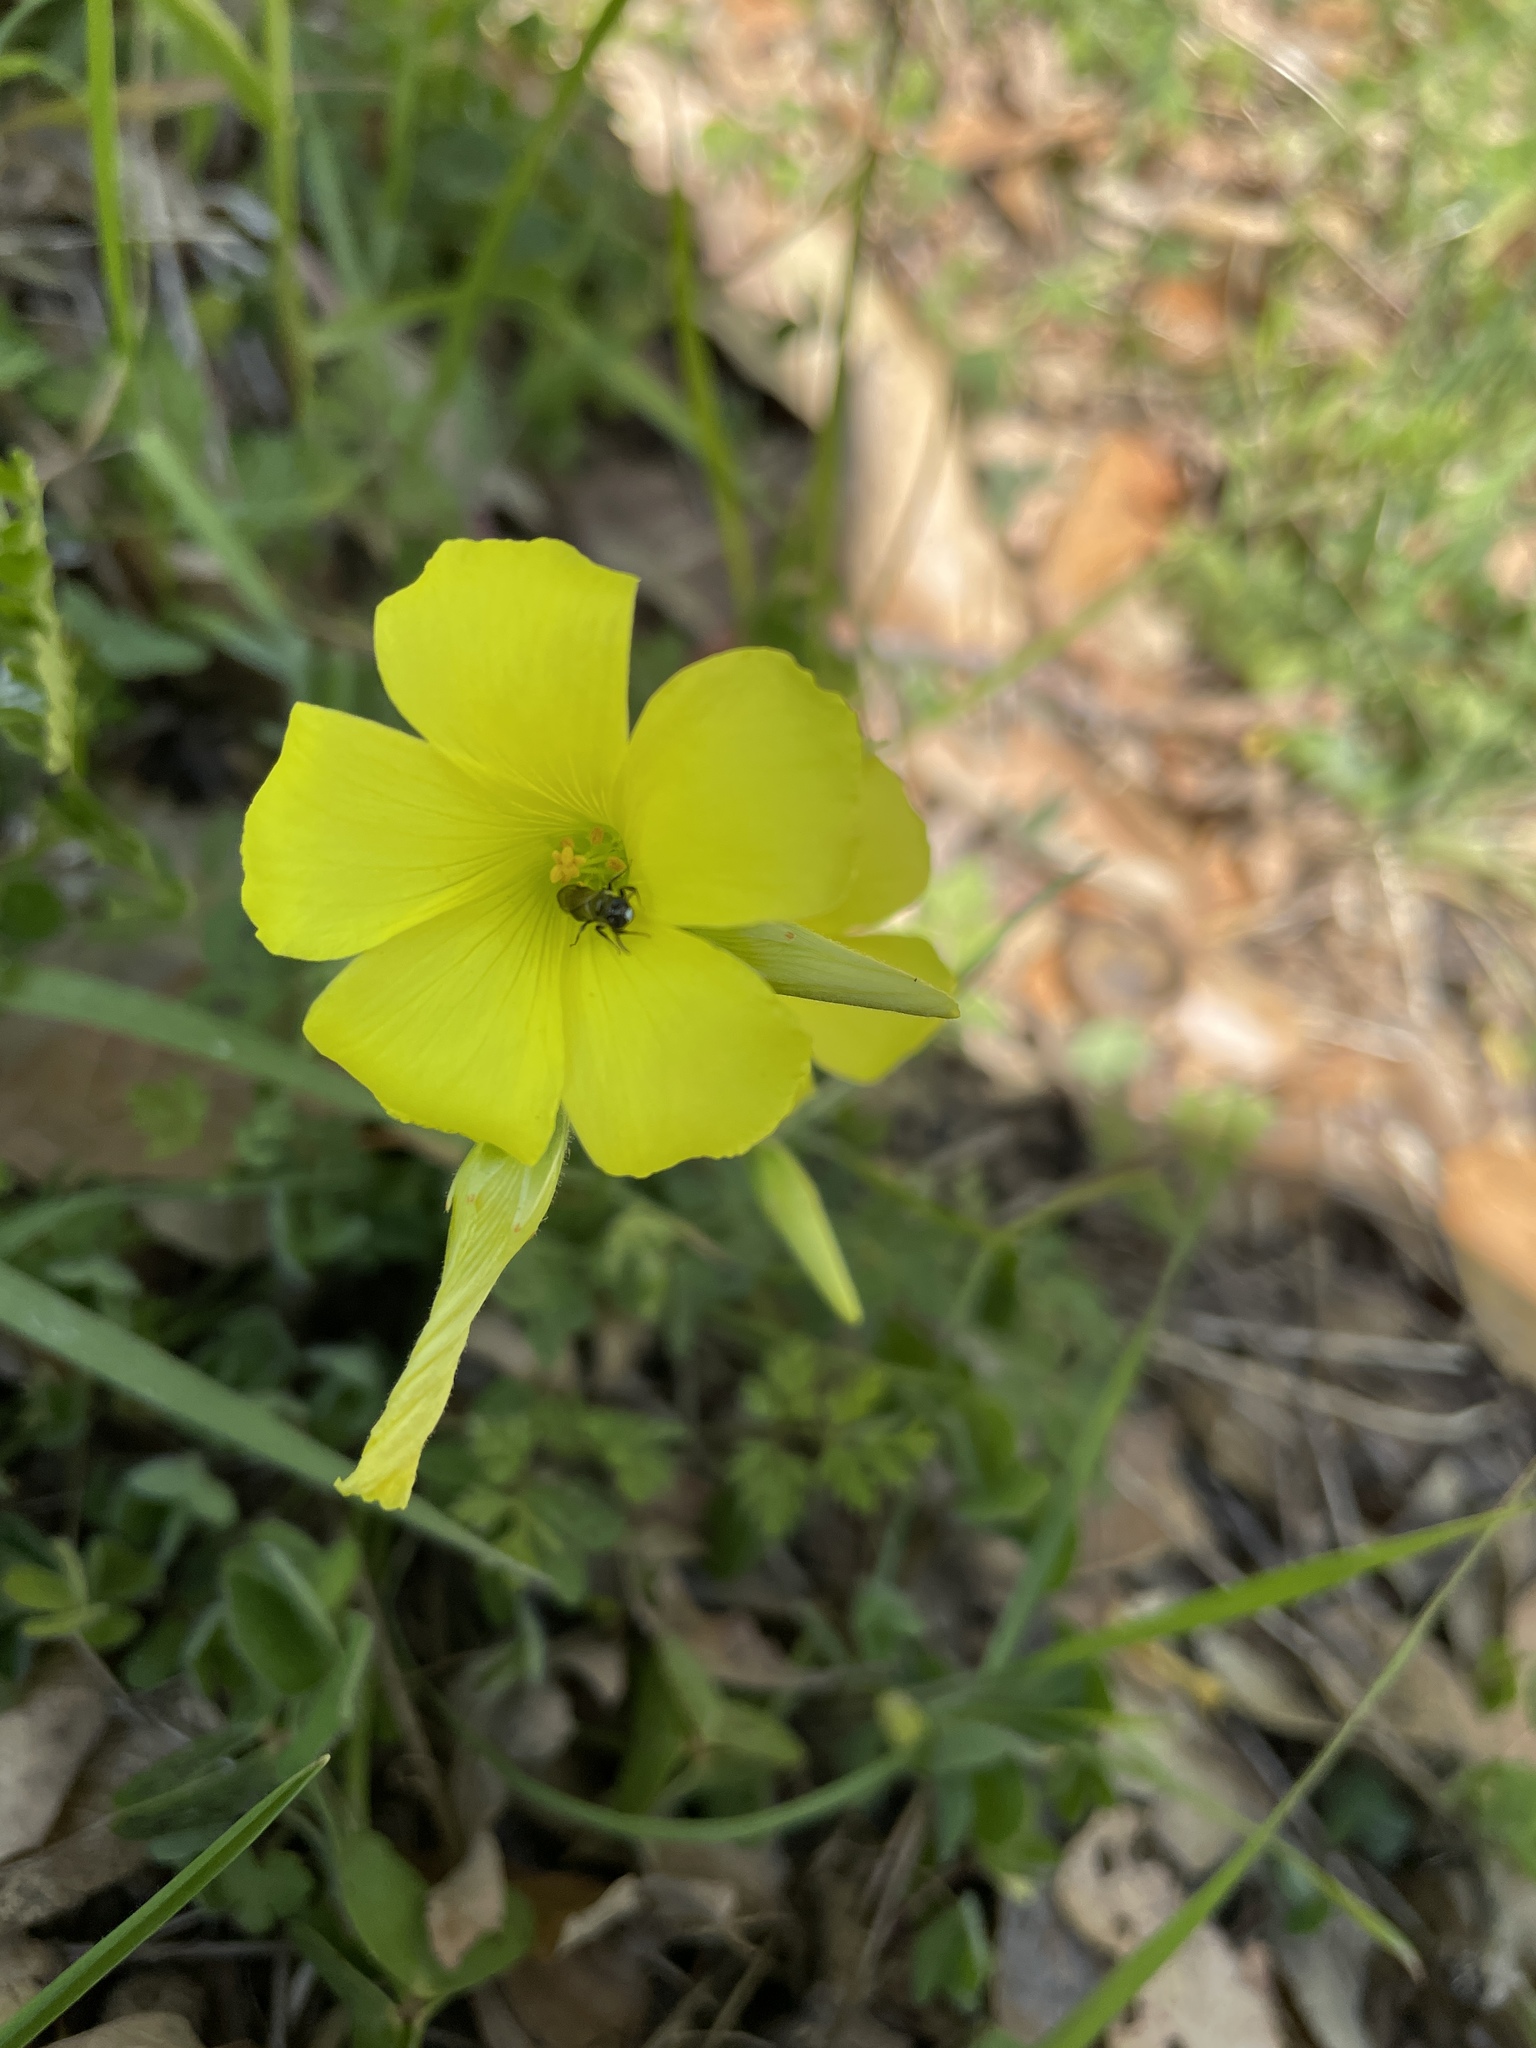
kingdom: Plantae
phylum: Tracheophyta
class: Magnoliopsida
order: Oxalidales
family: Oxalidaceae
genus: Oxalis
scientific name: Oxalis pes-caprae
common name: Bermuda-buttercup
